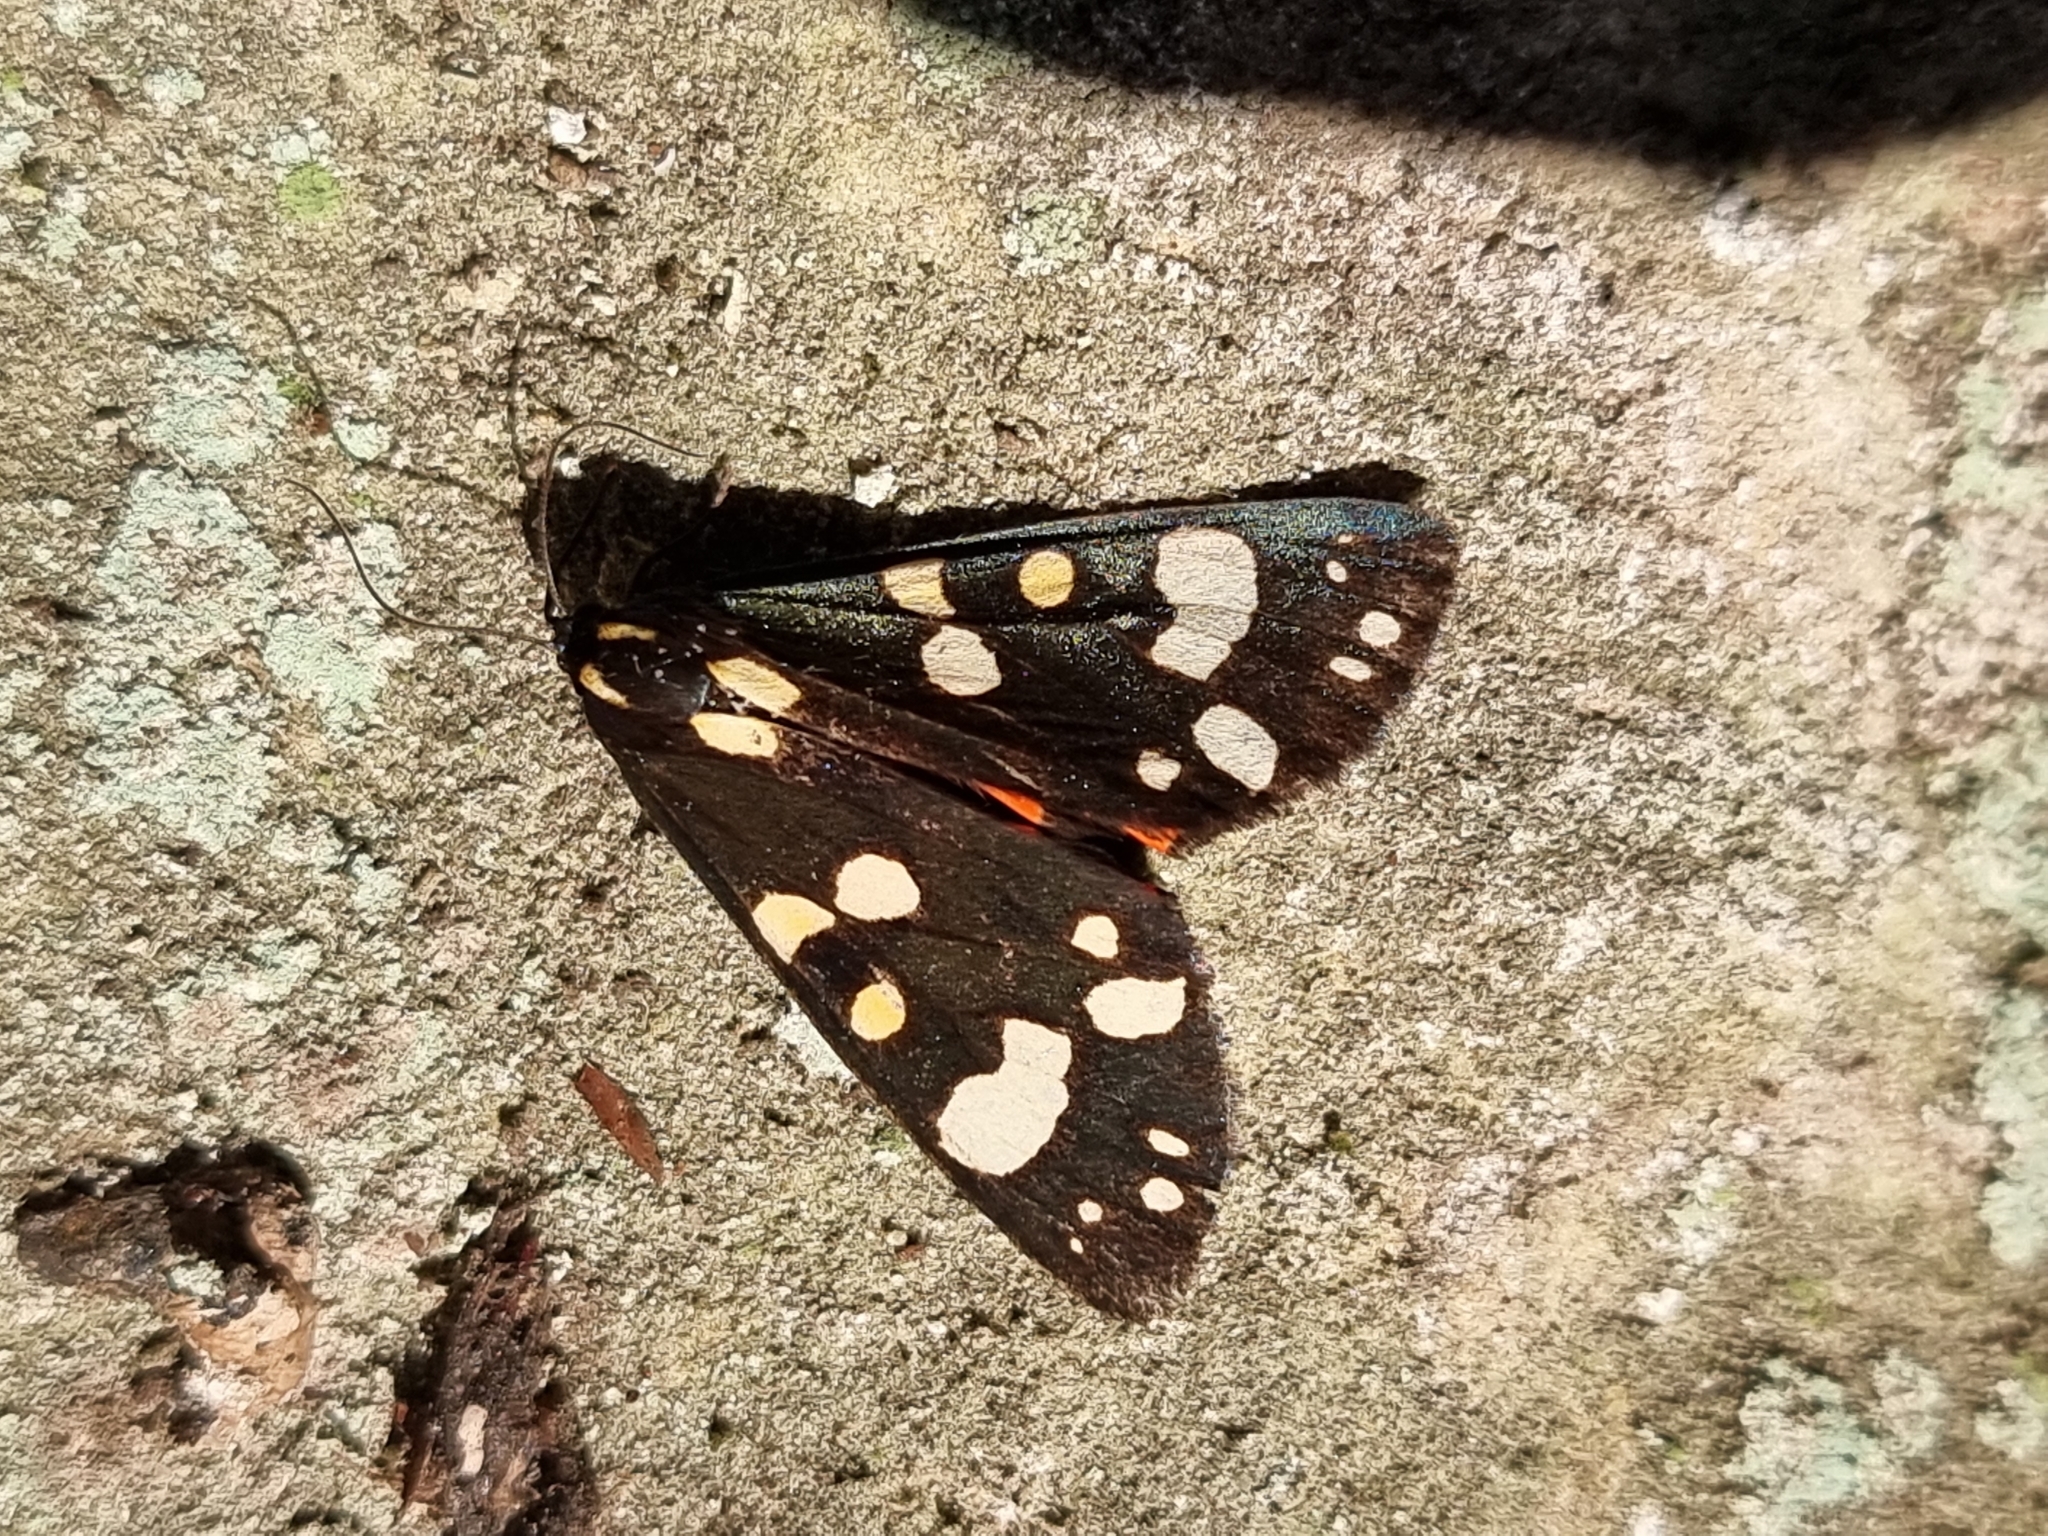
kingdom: Animalia
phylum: Arthropoda
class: Insecta
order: Lepidoptera
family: Erebidae
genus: Callimorpha
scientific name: Callimorpha dominula
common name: Scarlet tiger
